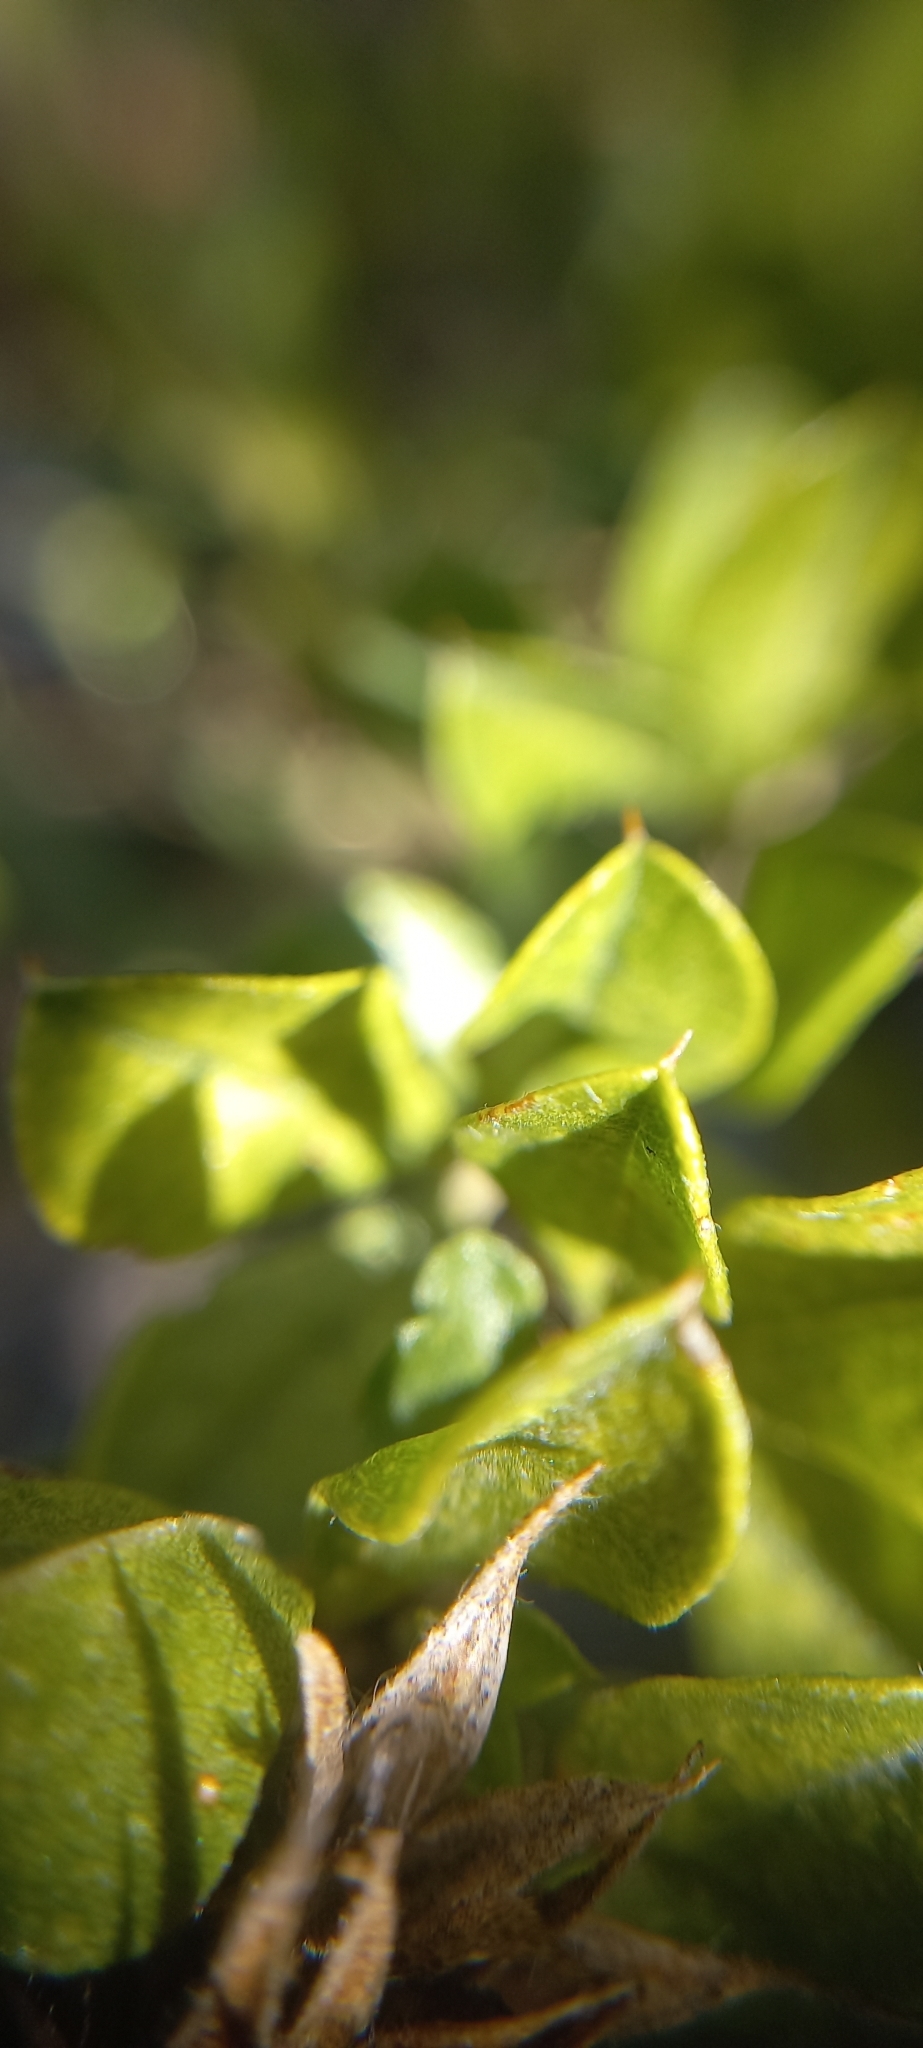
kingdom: Plantae
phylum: Tracheophyta
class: Magnoliopsida
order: Fabales
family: Fabaceae
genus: Psoralea
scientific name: Psoralea bracteolata
